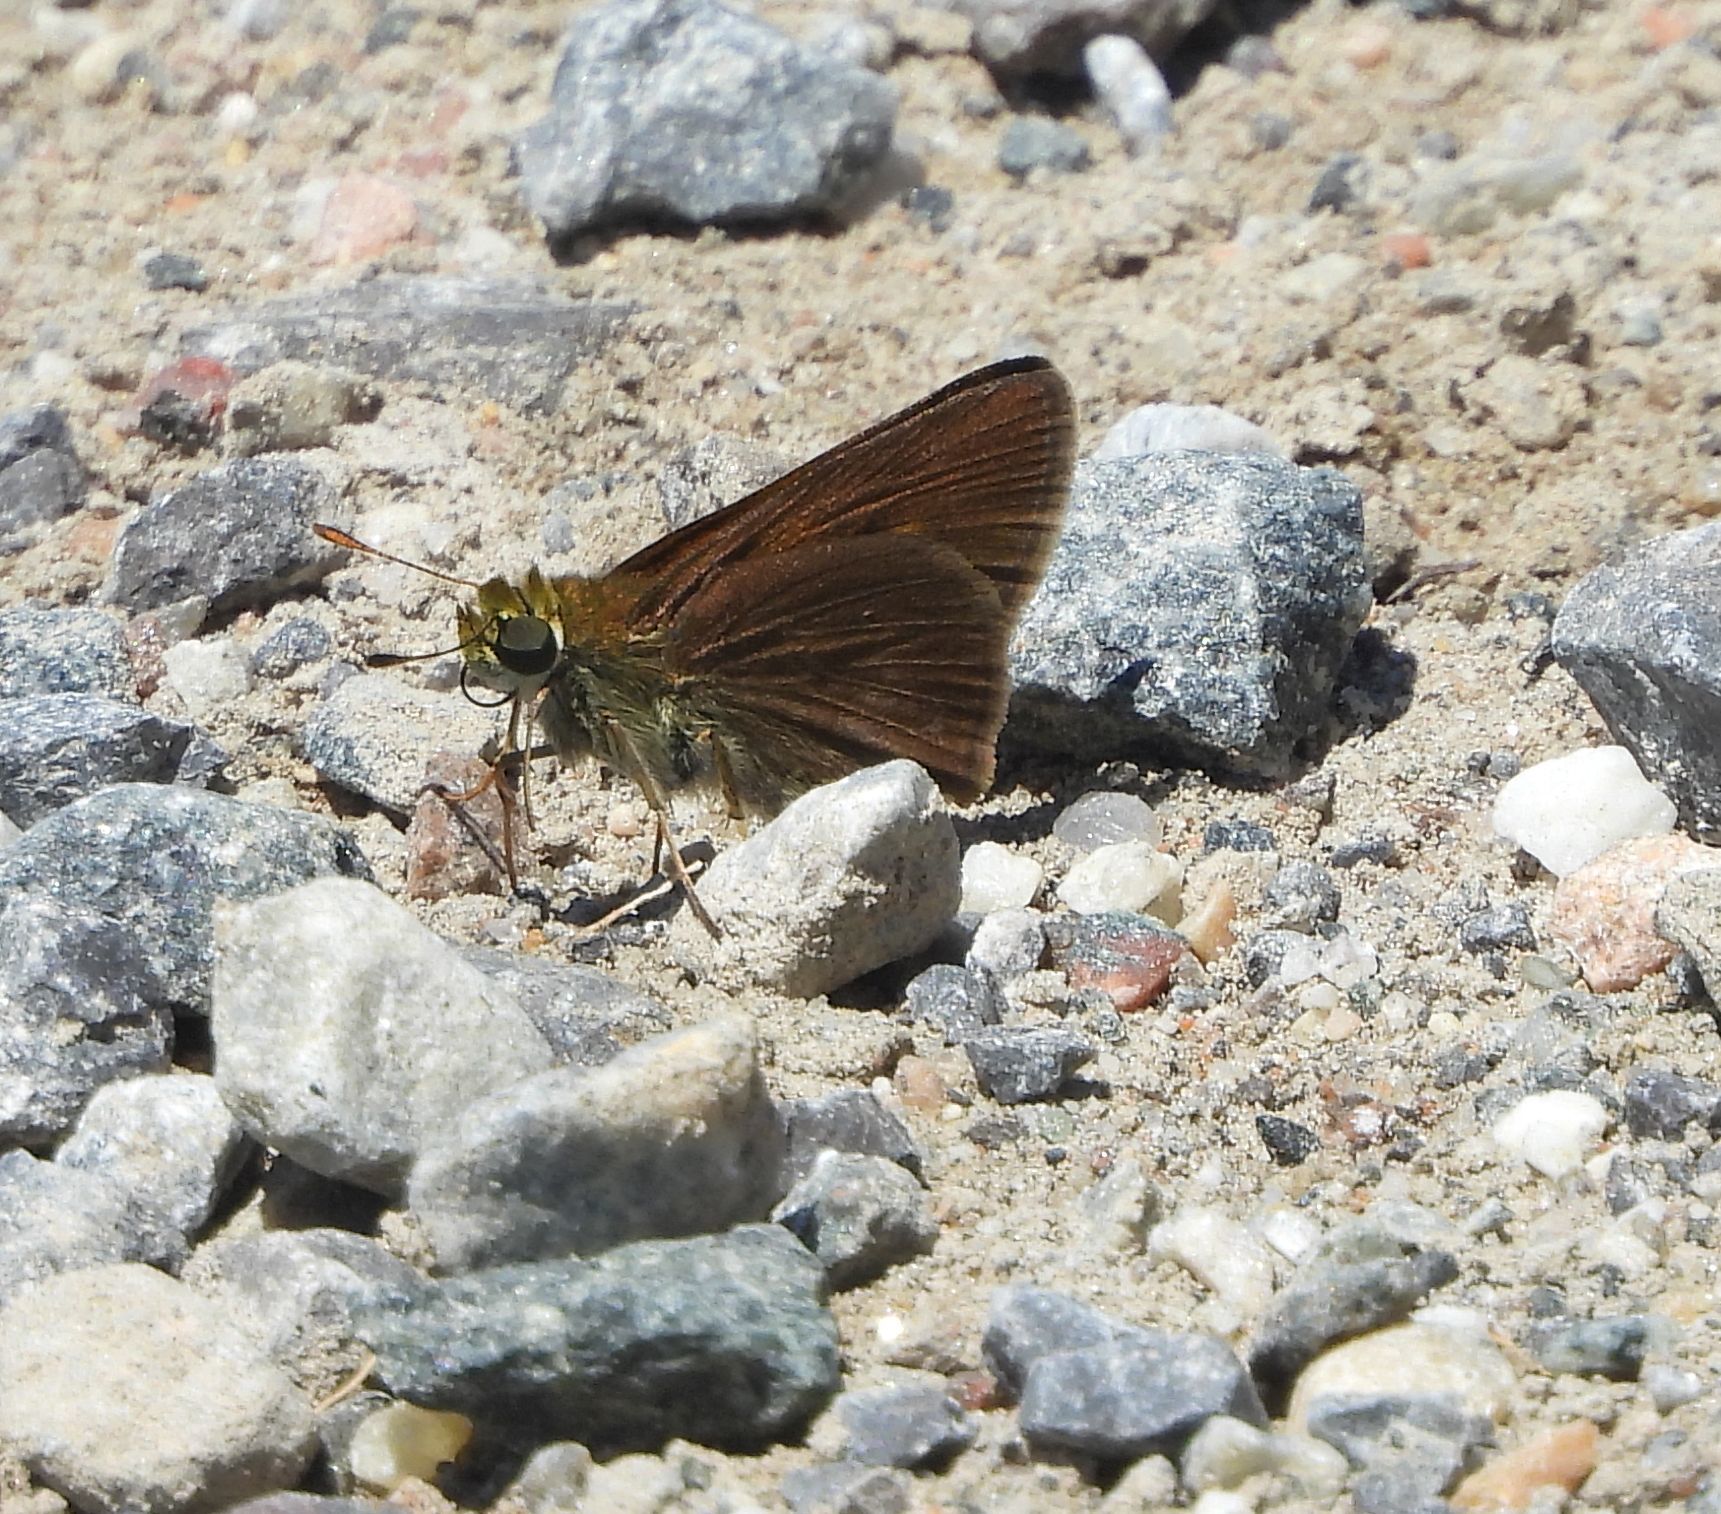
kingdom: Animalia
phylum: Arthropoda
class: Insecta
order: Lepidoptera
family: Hesperiidae
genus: Euphyes
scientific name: Euphyes vestris
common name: Dun skipper
